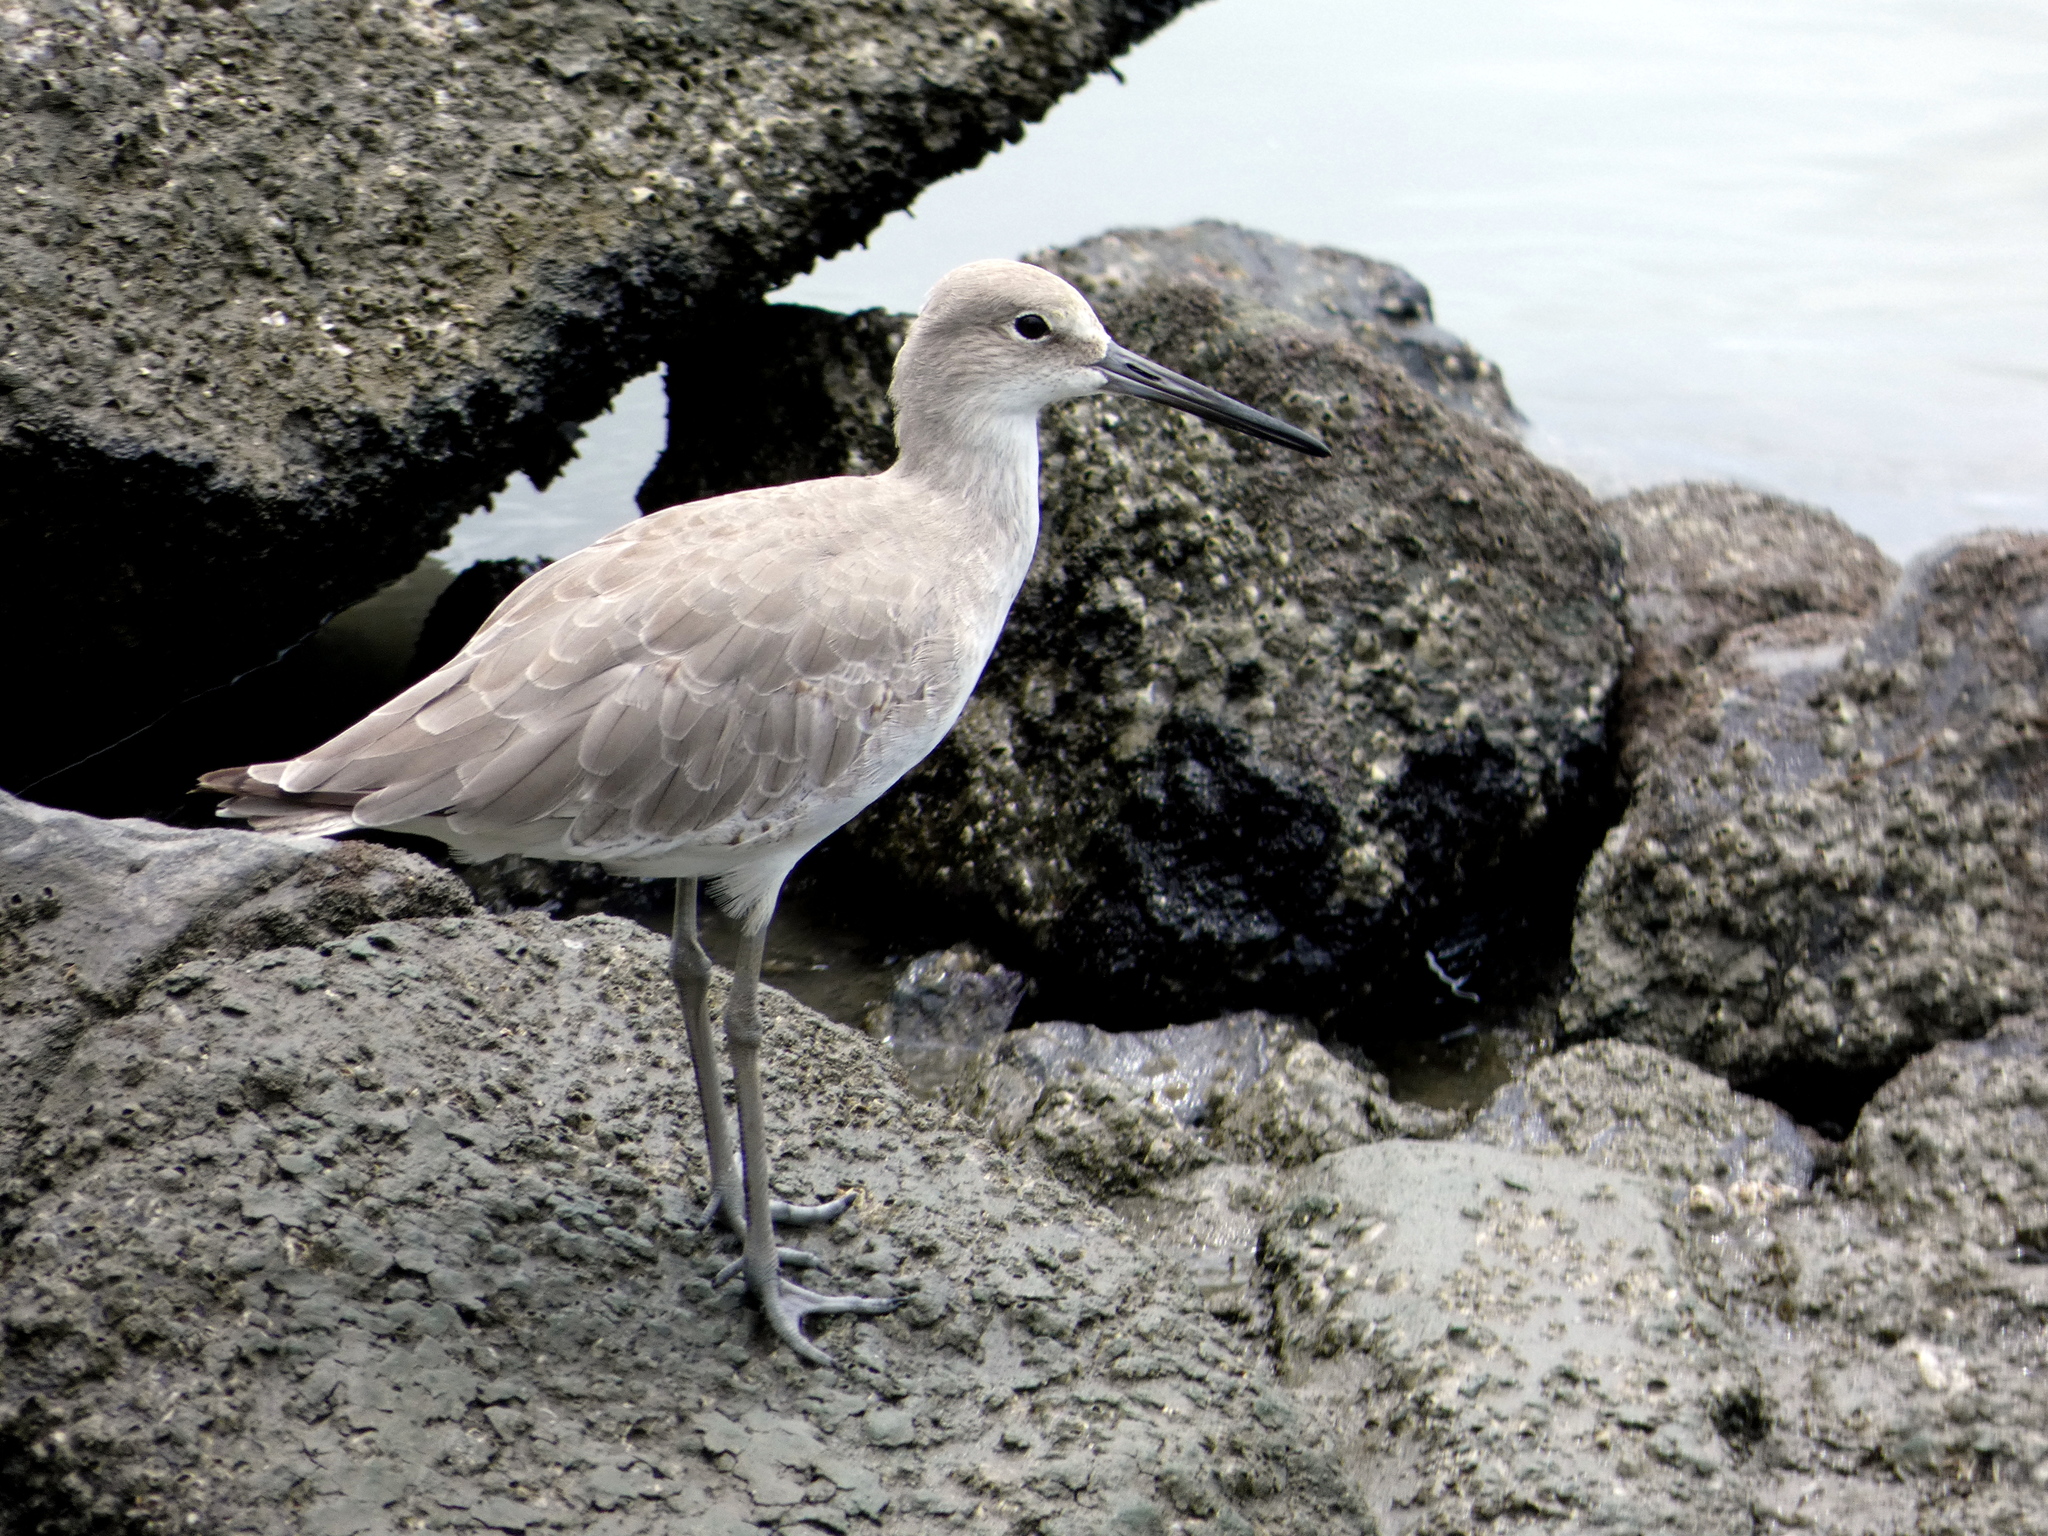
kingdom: Animalia
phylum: Chordata
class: Aves
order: Charadriiformes
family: Scolopacidae
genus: Tringa
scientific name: Tringa semipalmata
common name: Willet
